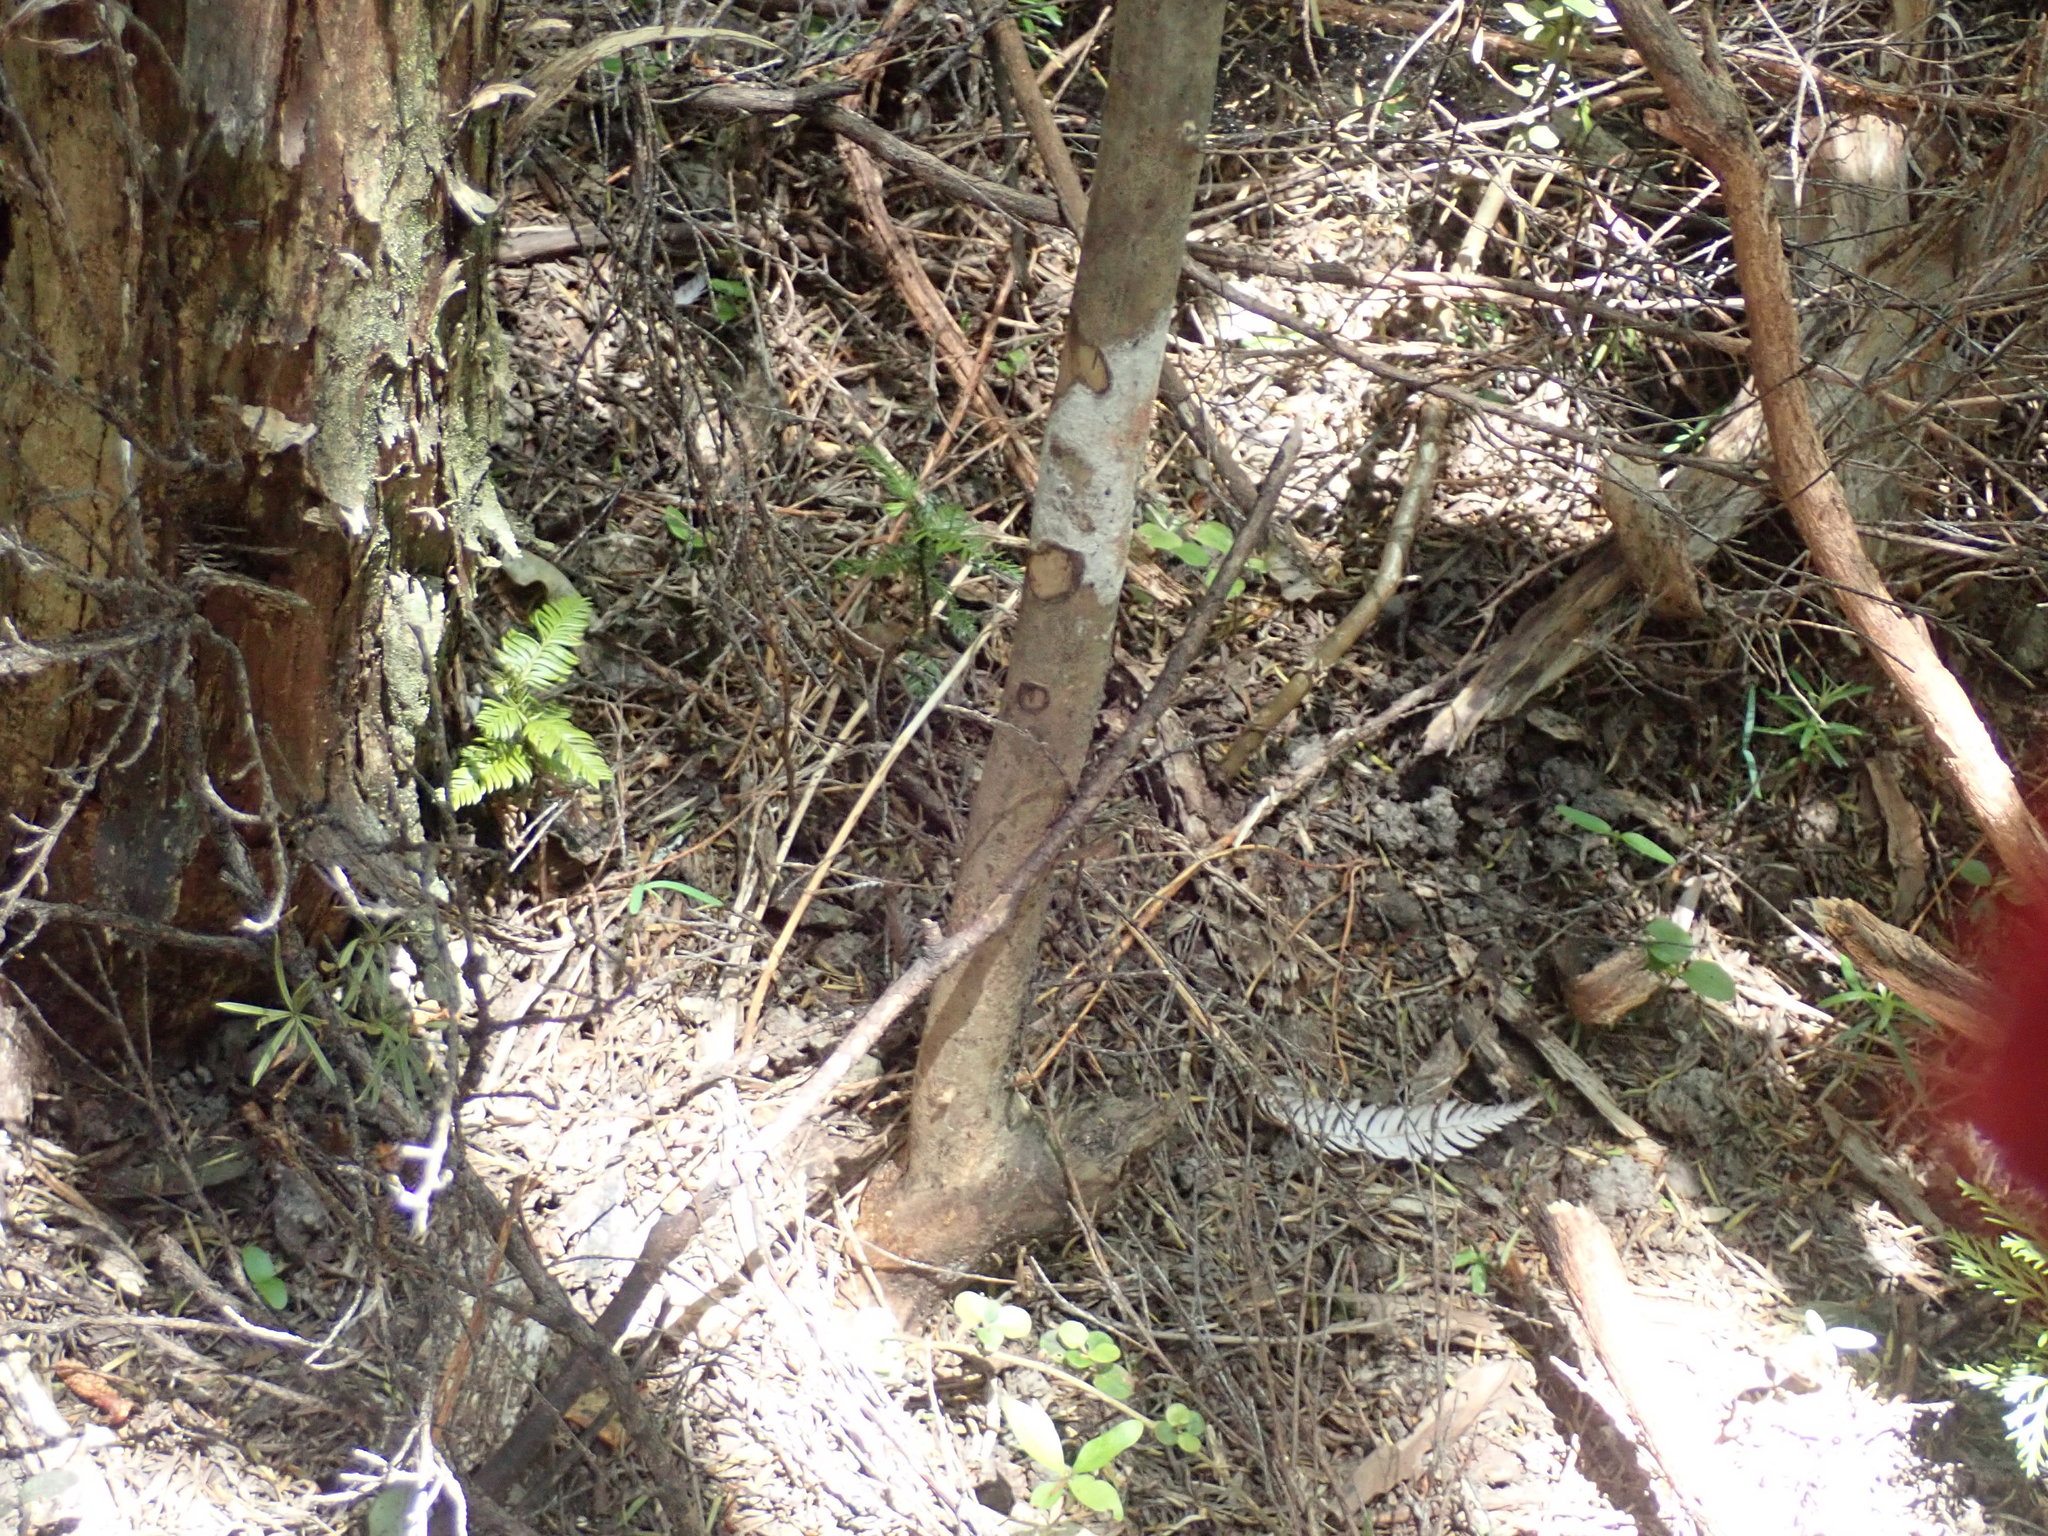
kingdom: Plantae
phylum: Tracheophyta
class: Pinopsida
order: Pinales
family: Podocarpaceae
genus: Dacrycarpus
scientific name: Dacrycarpus dacrydioides
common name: White pine
